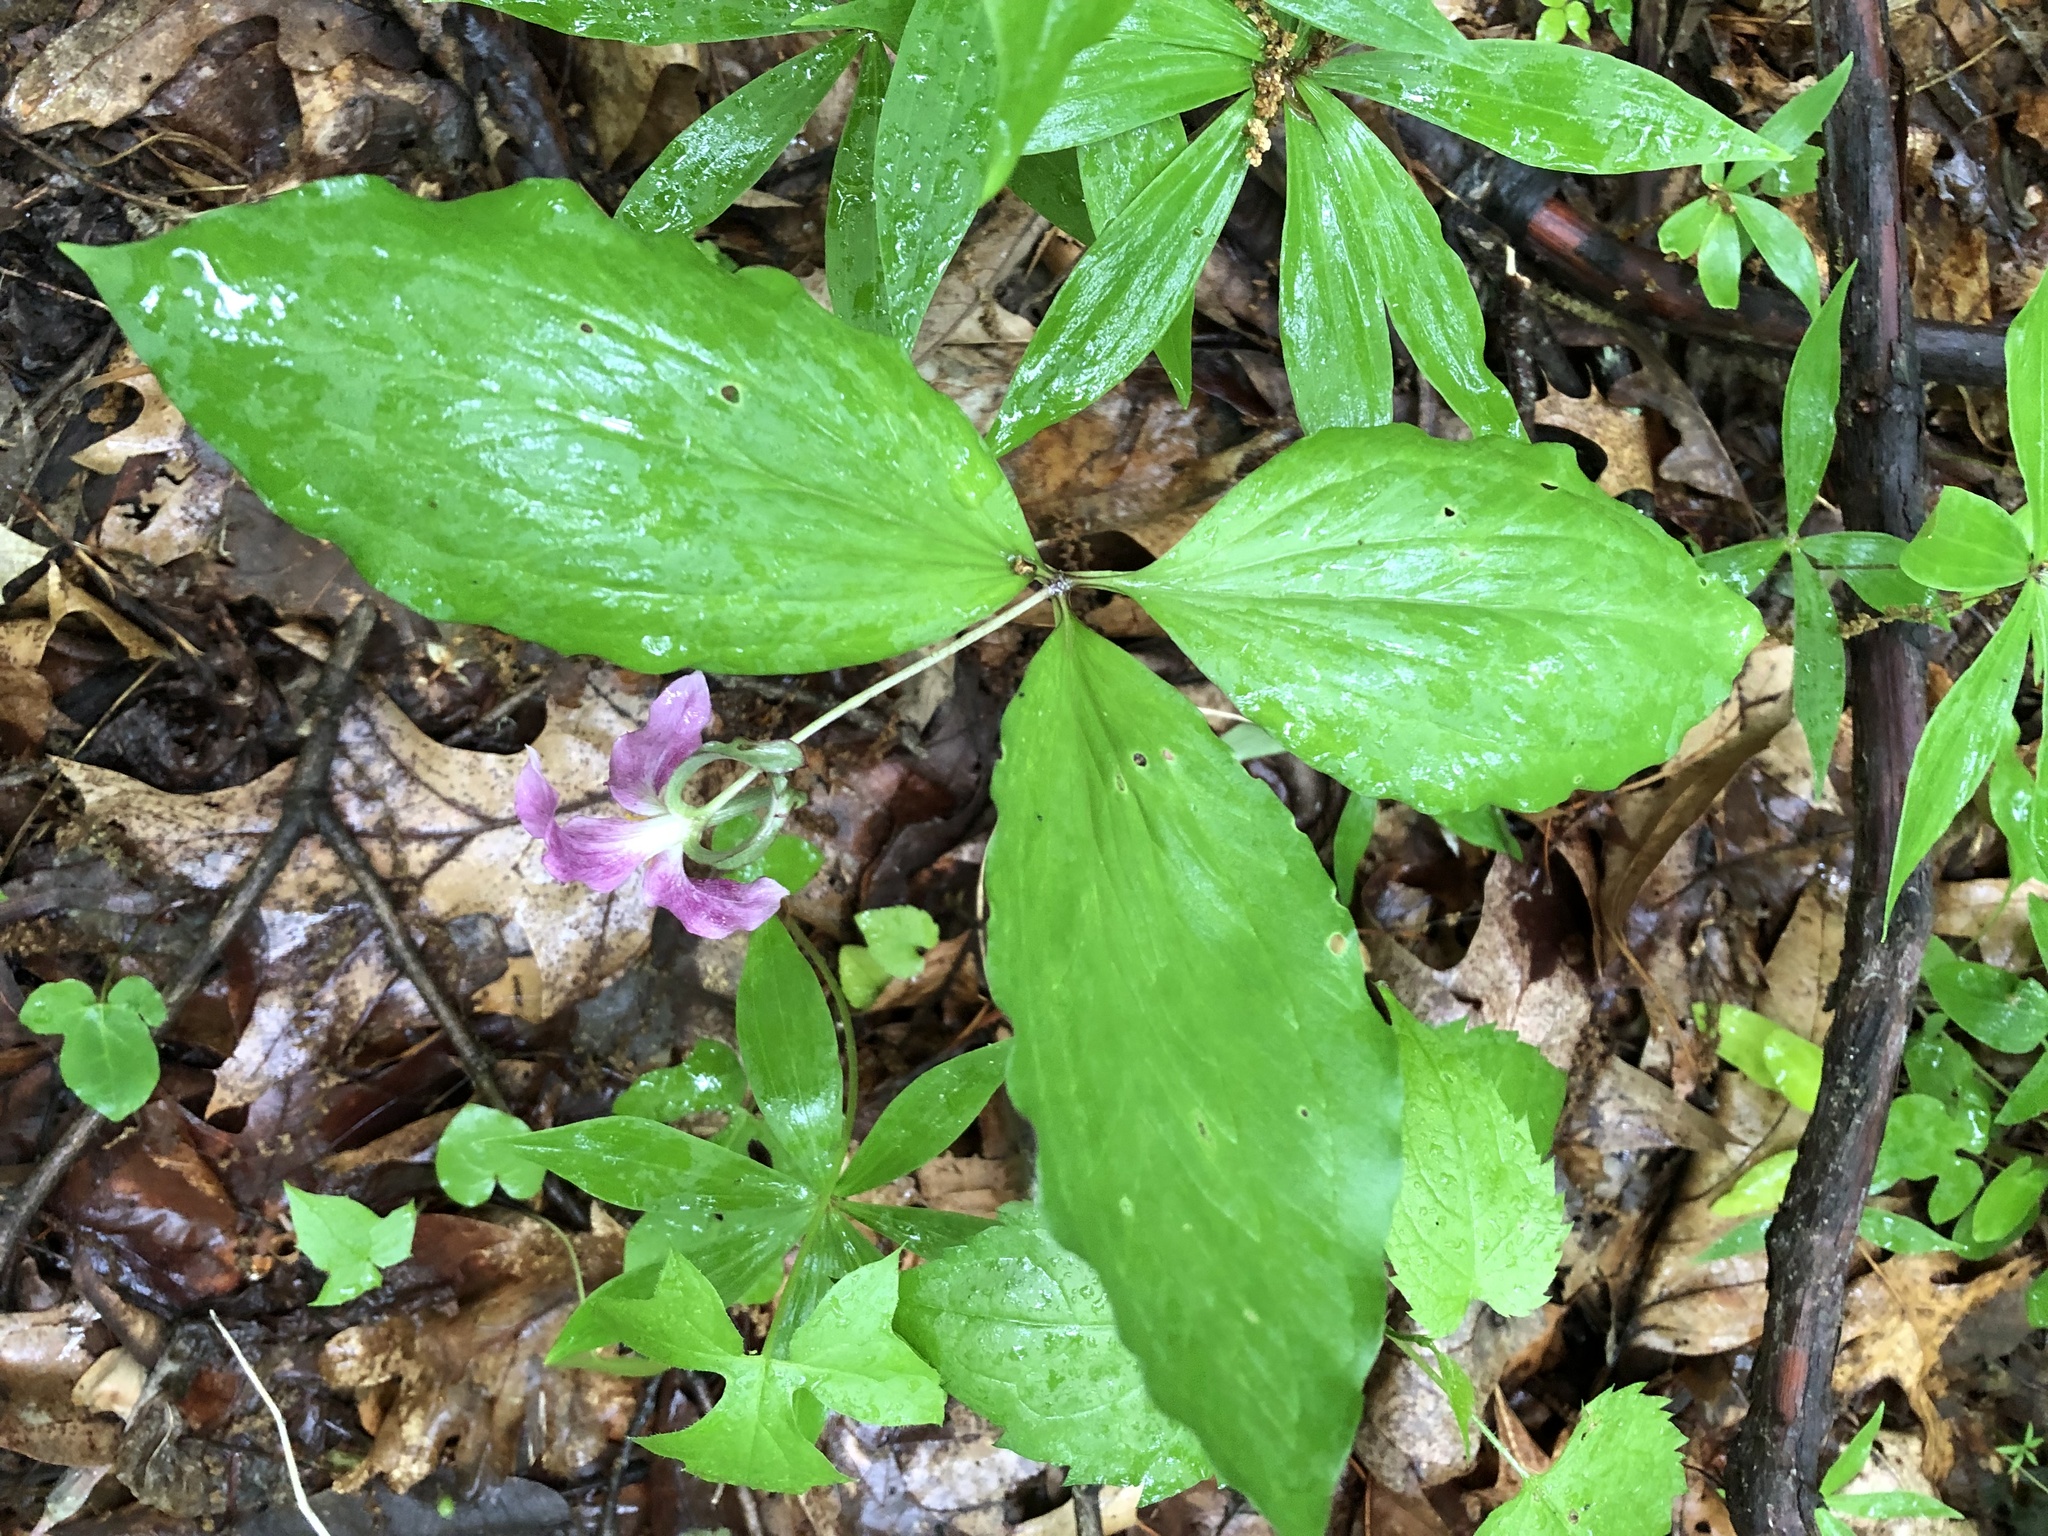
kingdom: Plantae
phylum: Tracheophyta
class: Liliopsida
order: Liliales
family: Melanthiaceae
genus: Trillium
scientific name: Trillium catesbaei
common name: Bashful trillium
